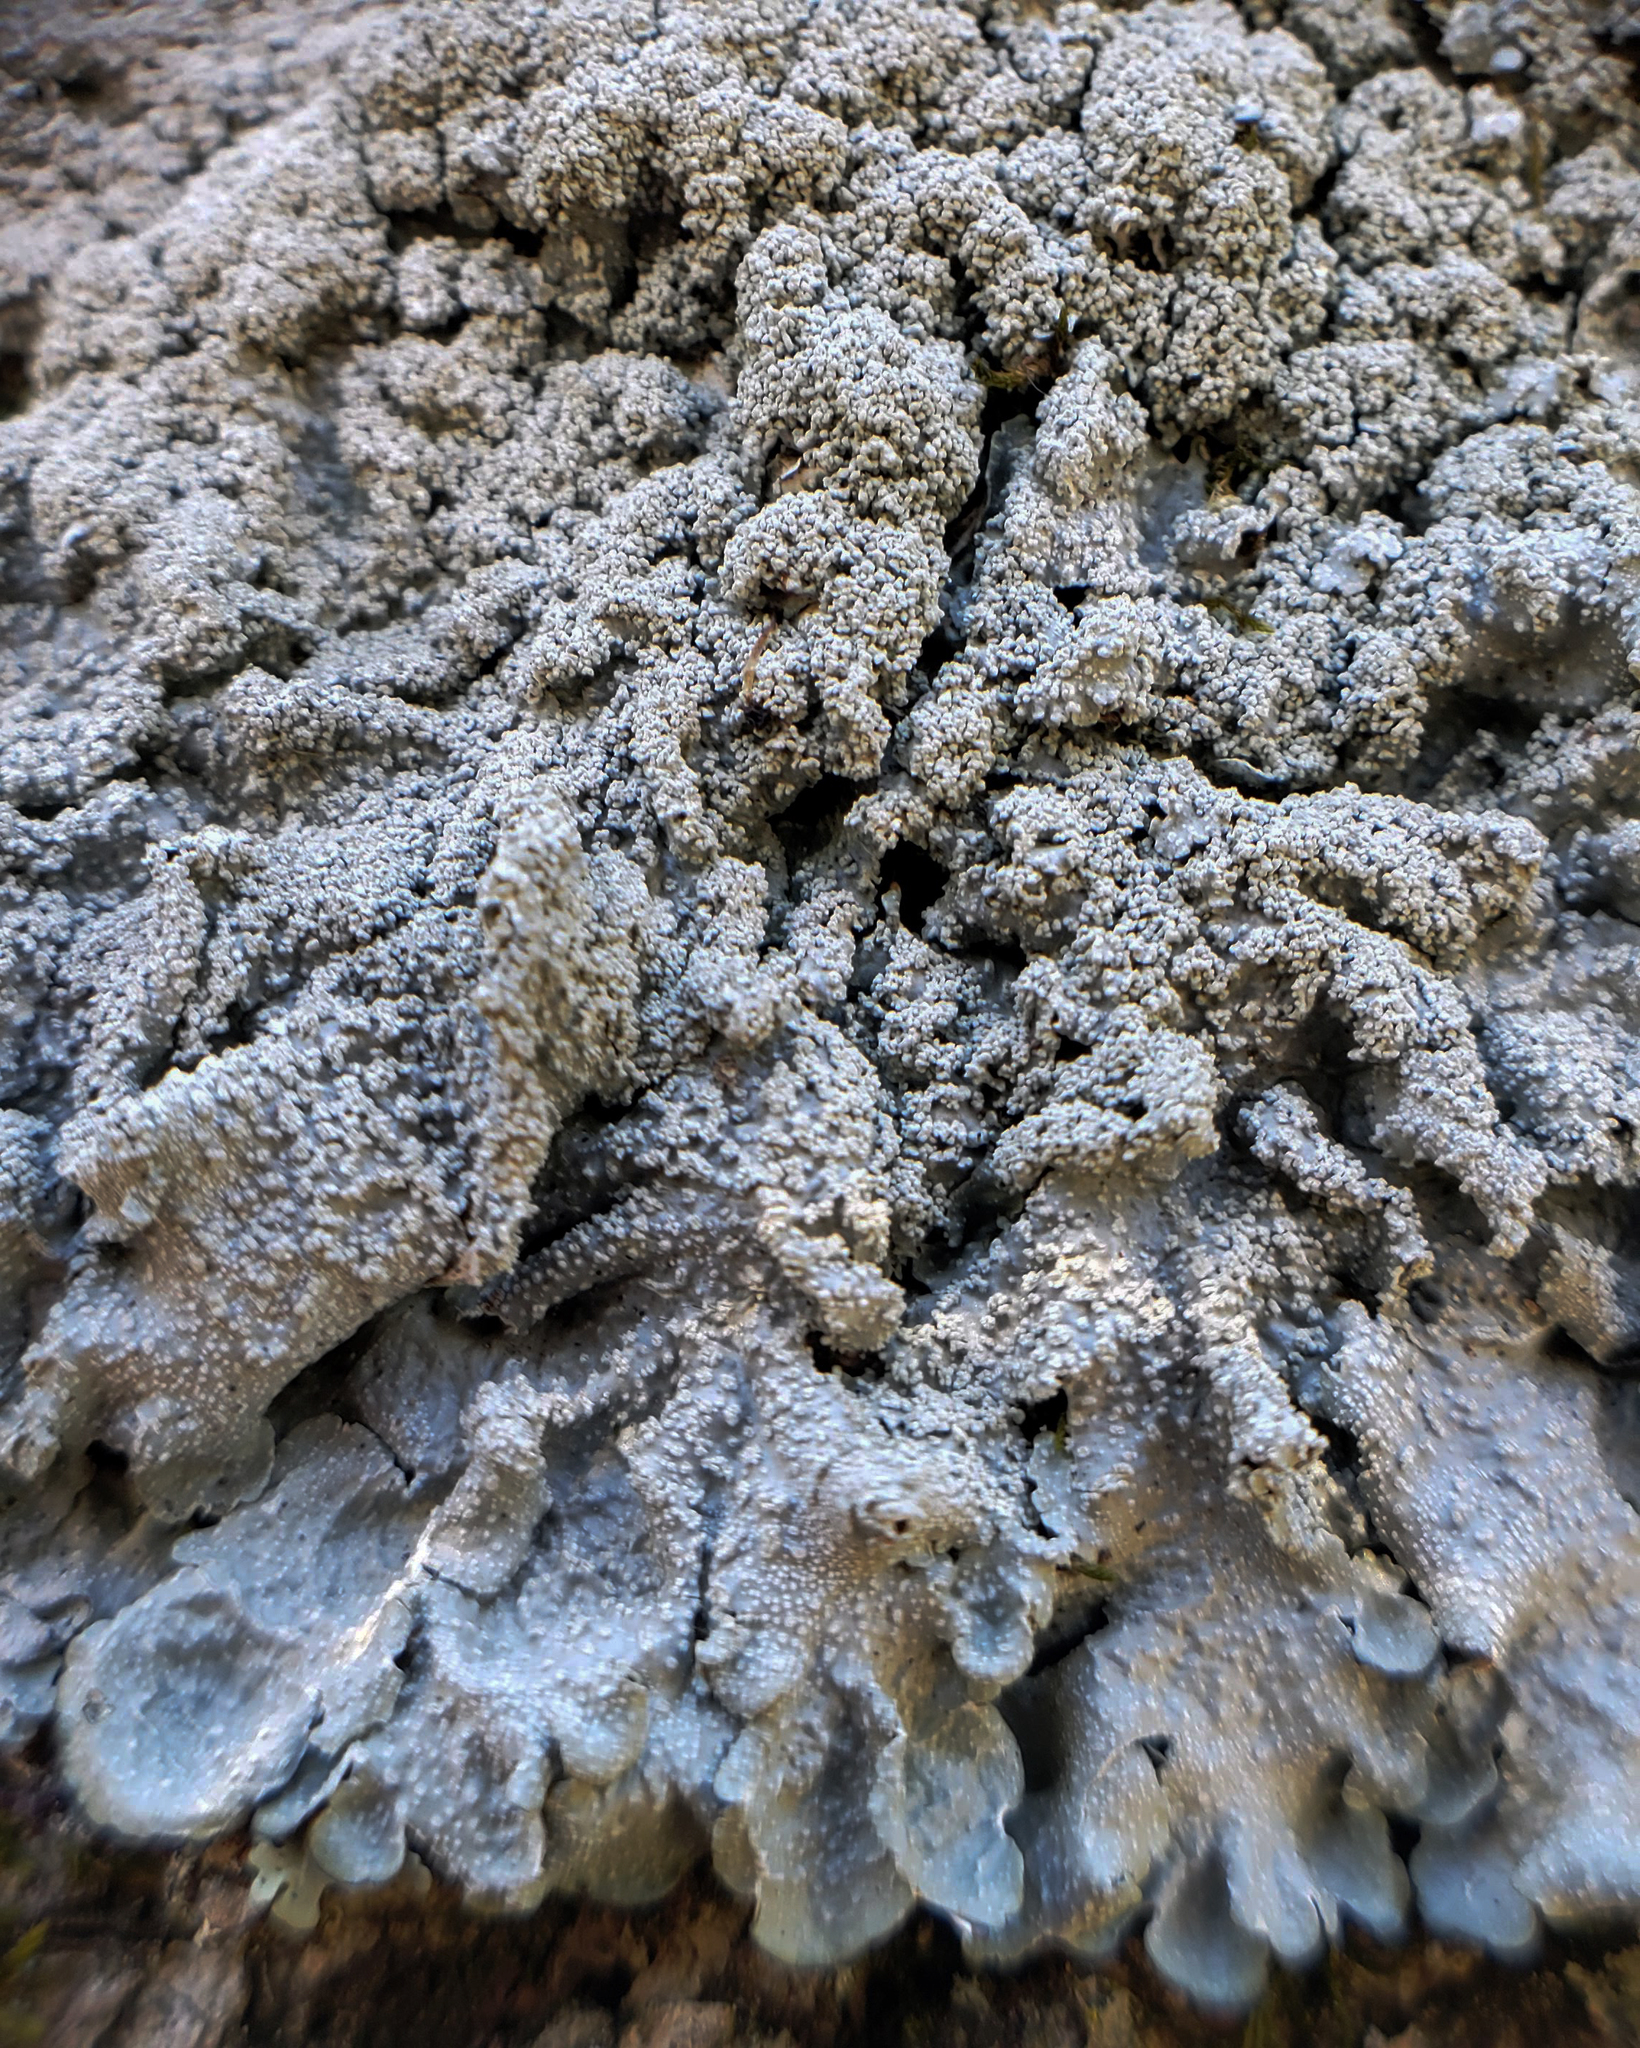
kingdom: Fungi
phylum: Ascomycota
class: Lecanoromycetes
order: Lecanorales
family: Parmeliaceae
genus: Punctelia
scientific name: Punctelia missouriensis
